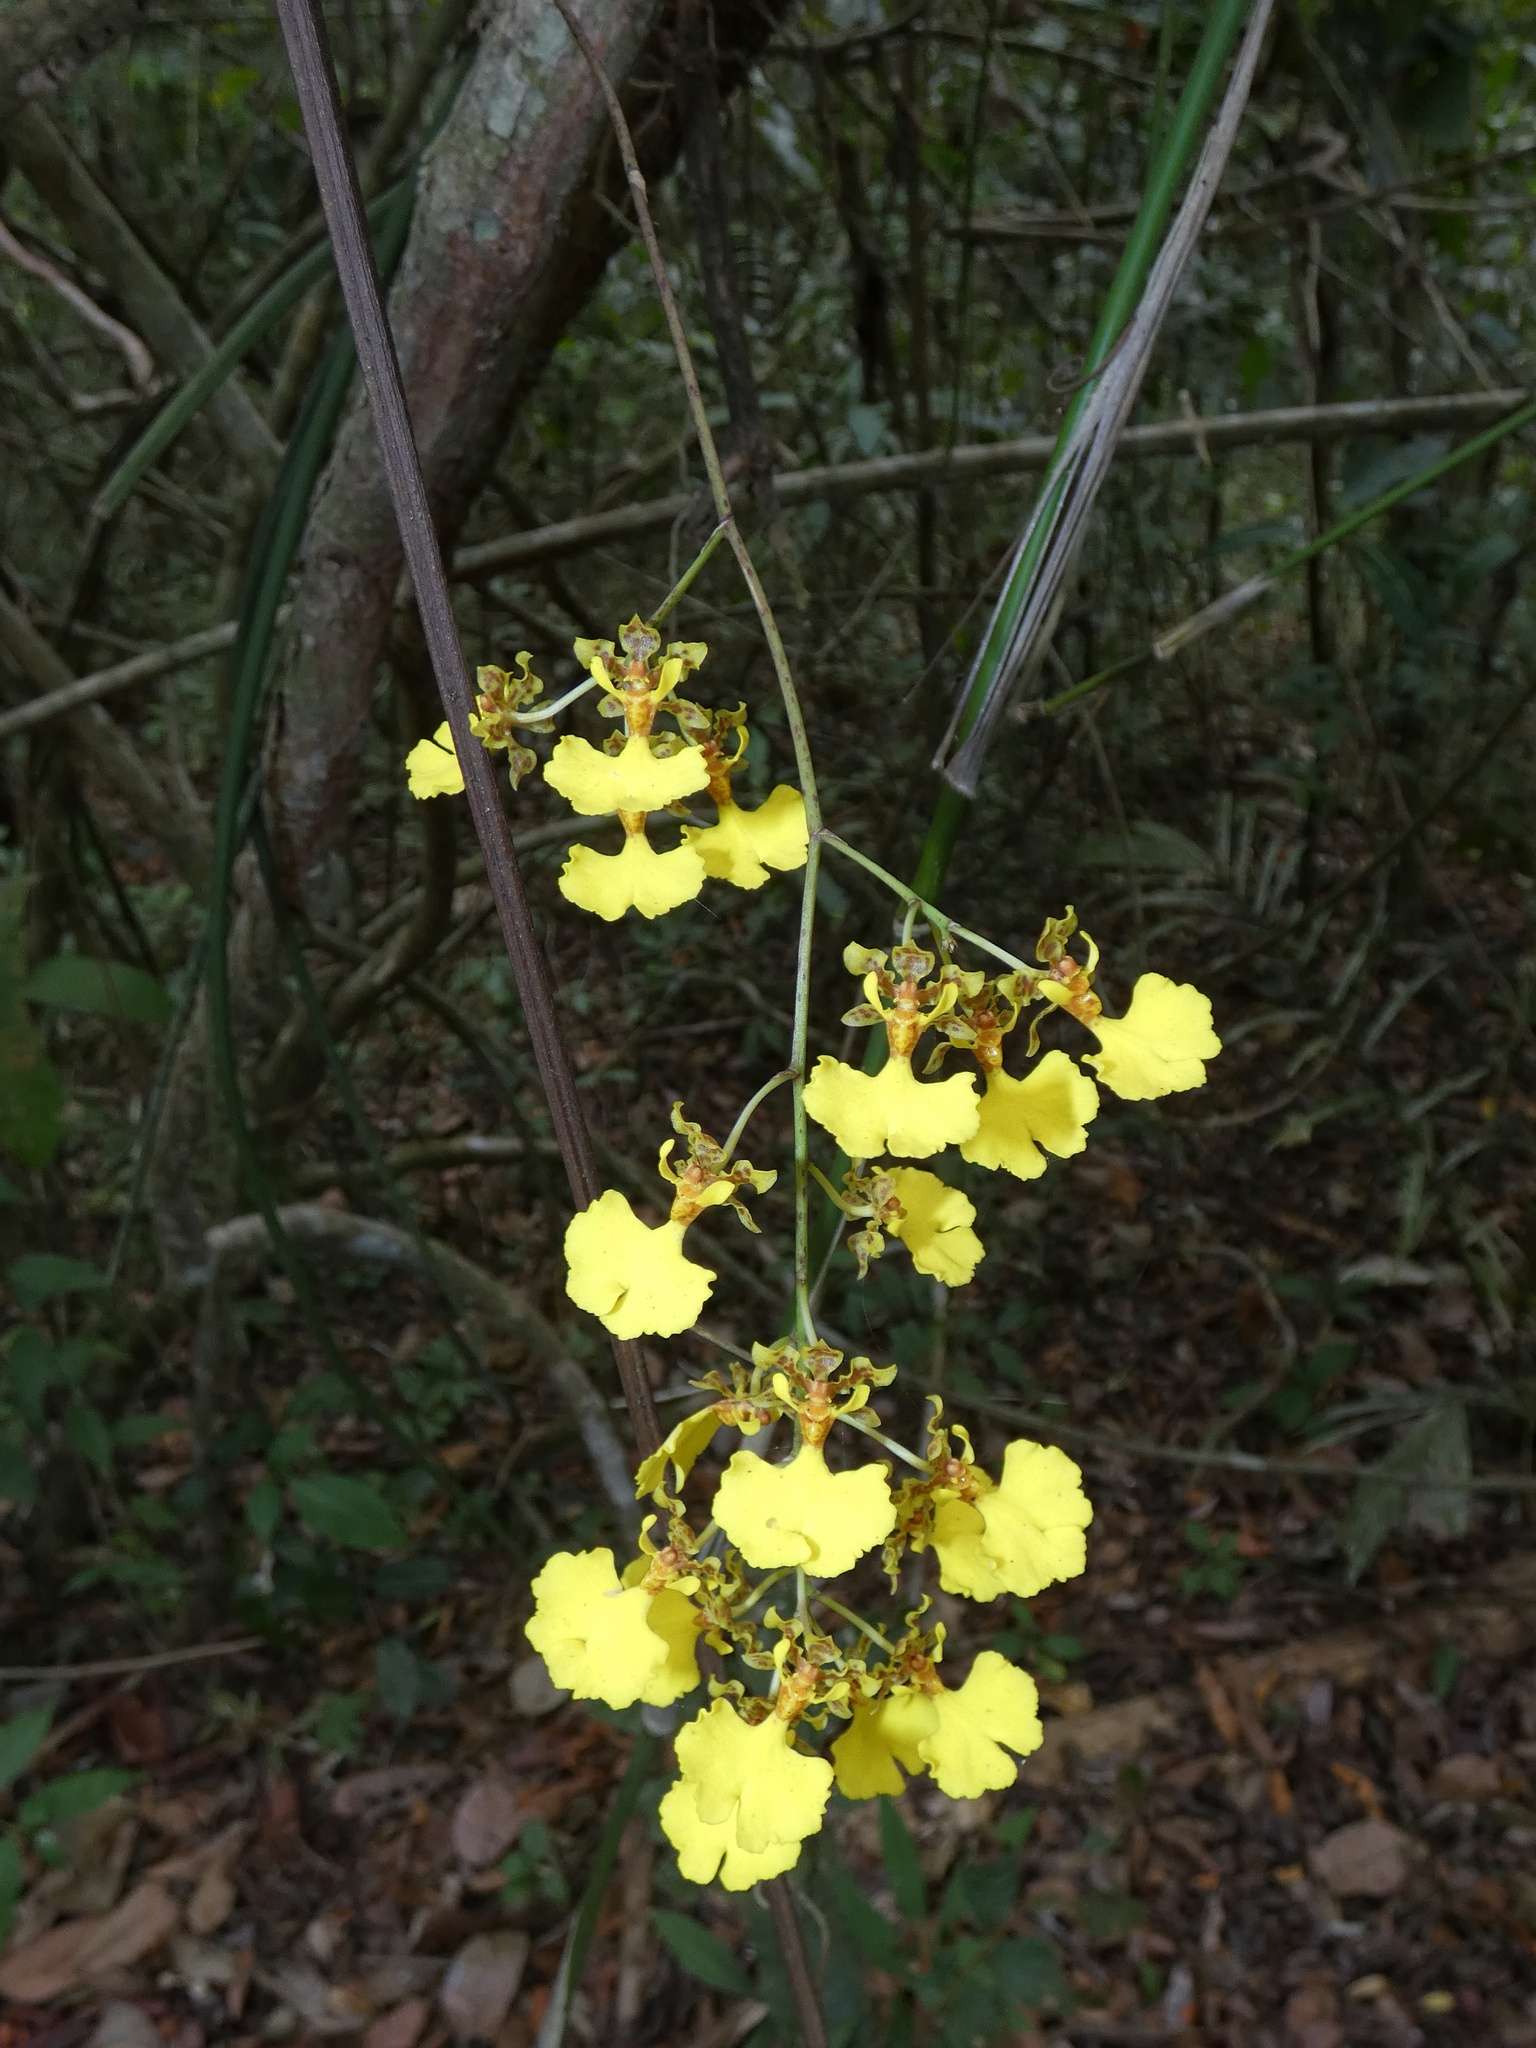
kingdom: Plantae
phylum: Tracheophyta
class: Liliopsida
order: Asparagales
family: Orchidaceae
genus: Trichocentrum
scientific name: Trichocentrum lacerum
